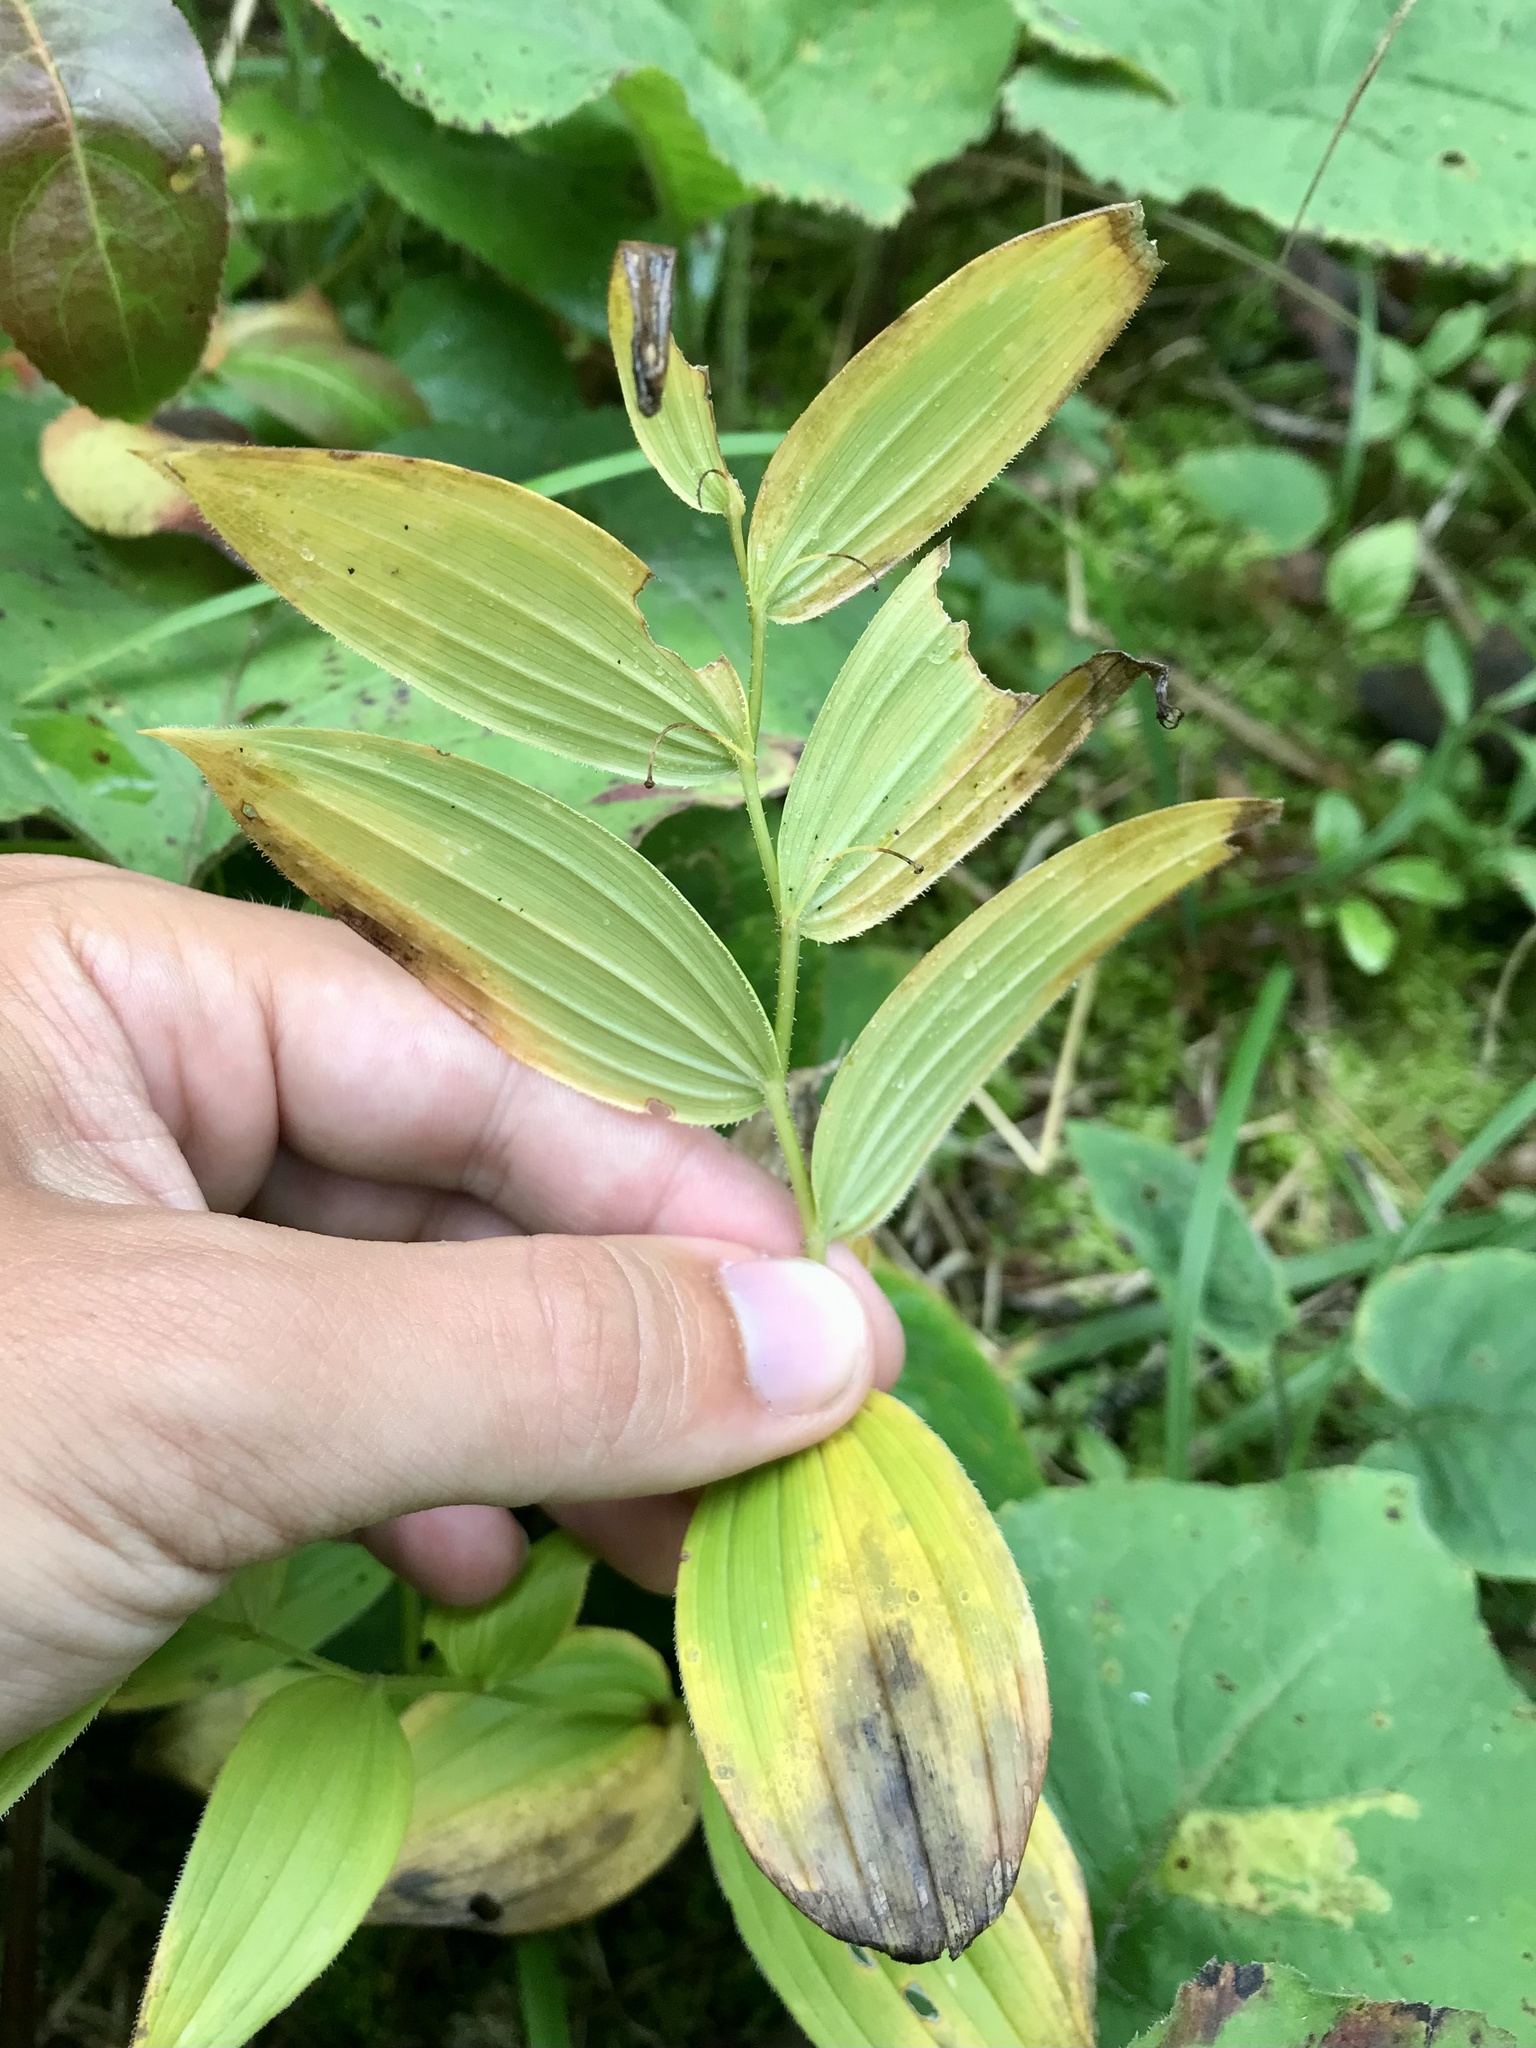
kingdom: Plantae
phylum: Tracheophyta
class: Liliopsida
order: Liliales
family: Liliaceae
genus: Streptopus
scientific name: Streptopus lanceolatus
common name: Rose mandarin
